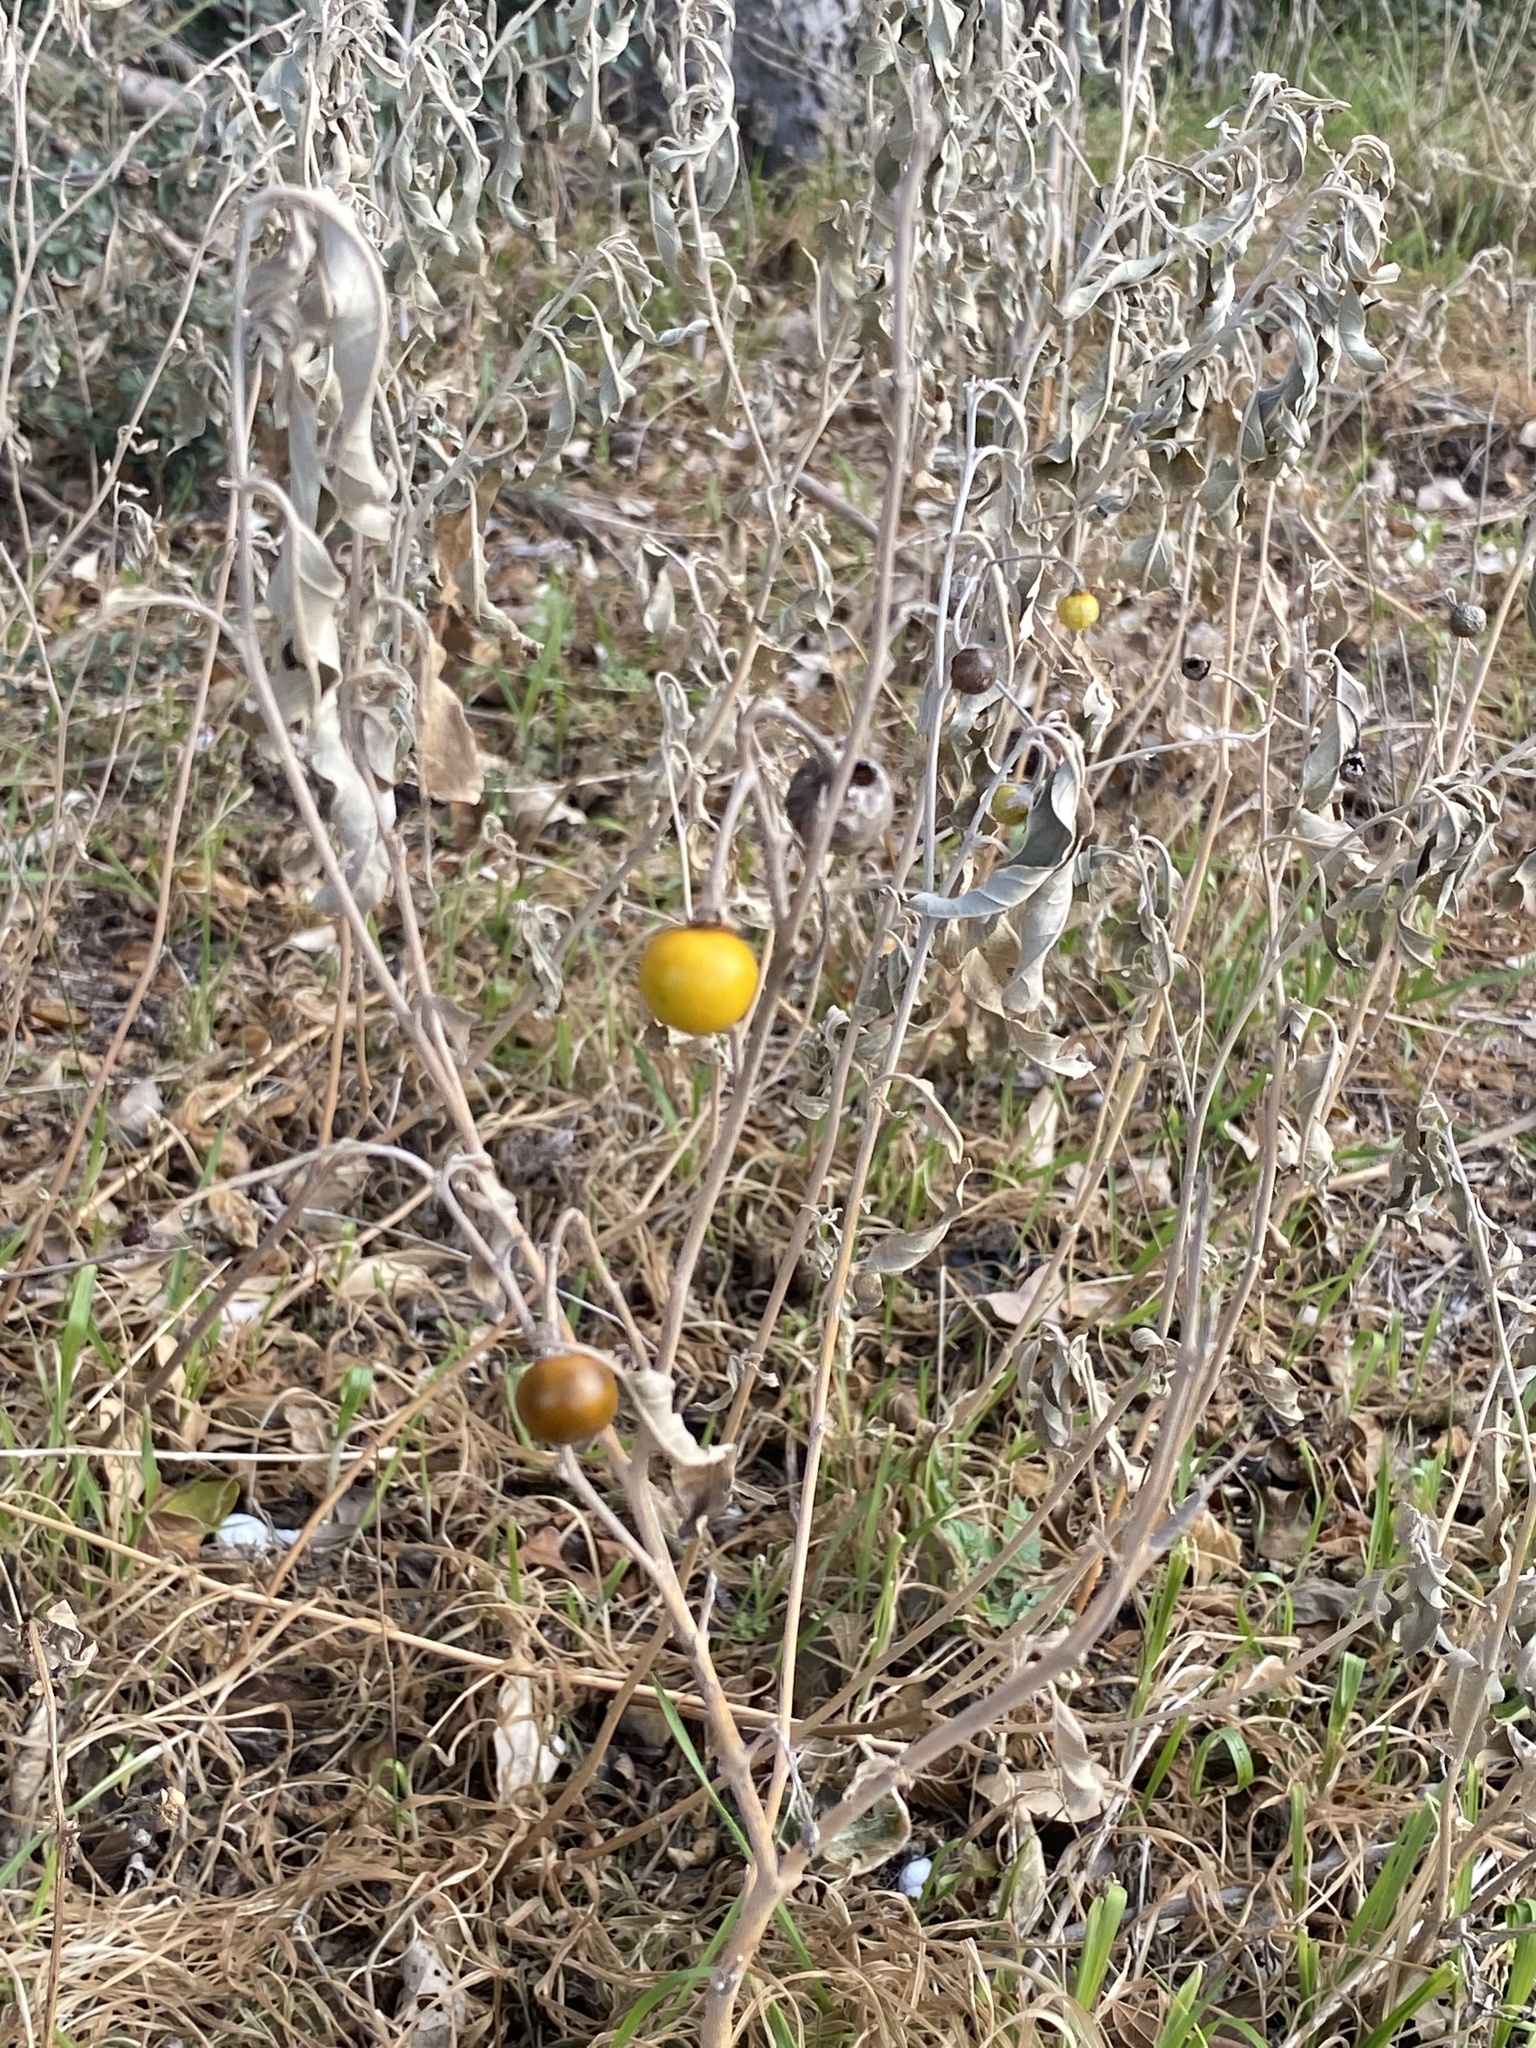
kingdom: Plantae
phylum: Tracheophyta
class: Magnoliopsida
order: Solanales
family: Solanaceae
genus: Solanum
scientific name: Solanum elaeagnifolium
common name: Silverleaf nightshade
